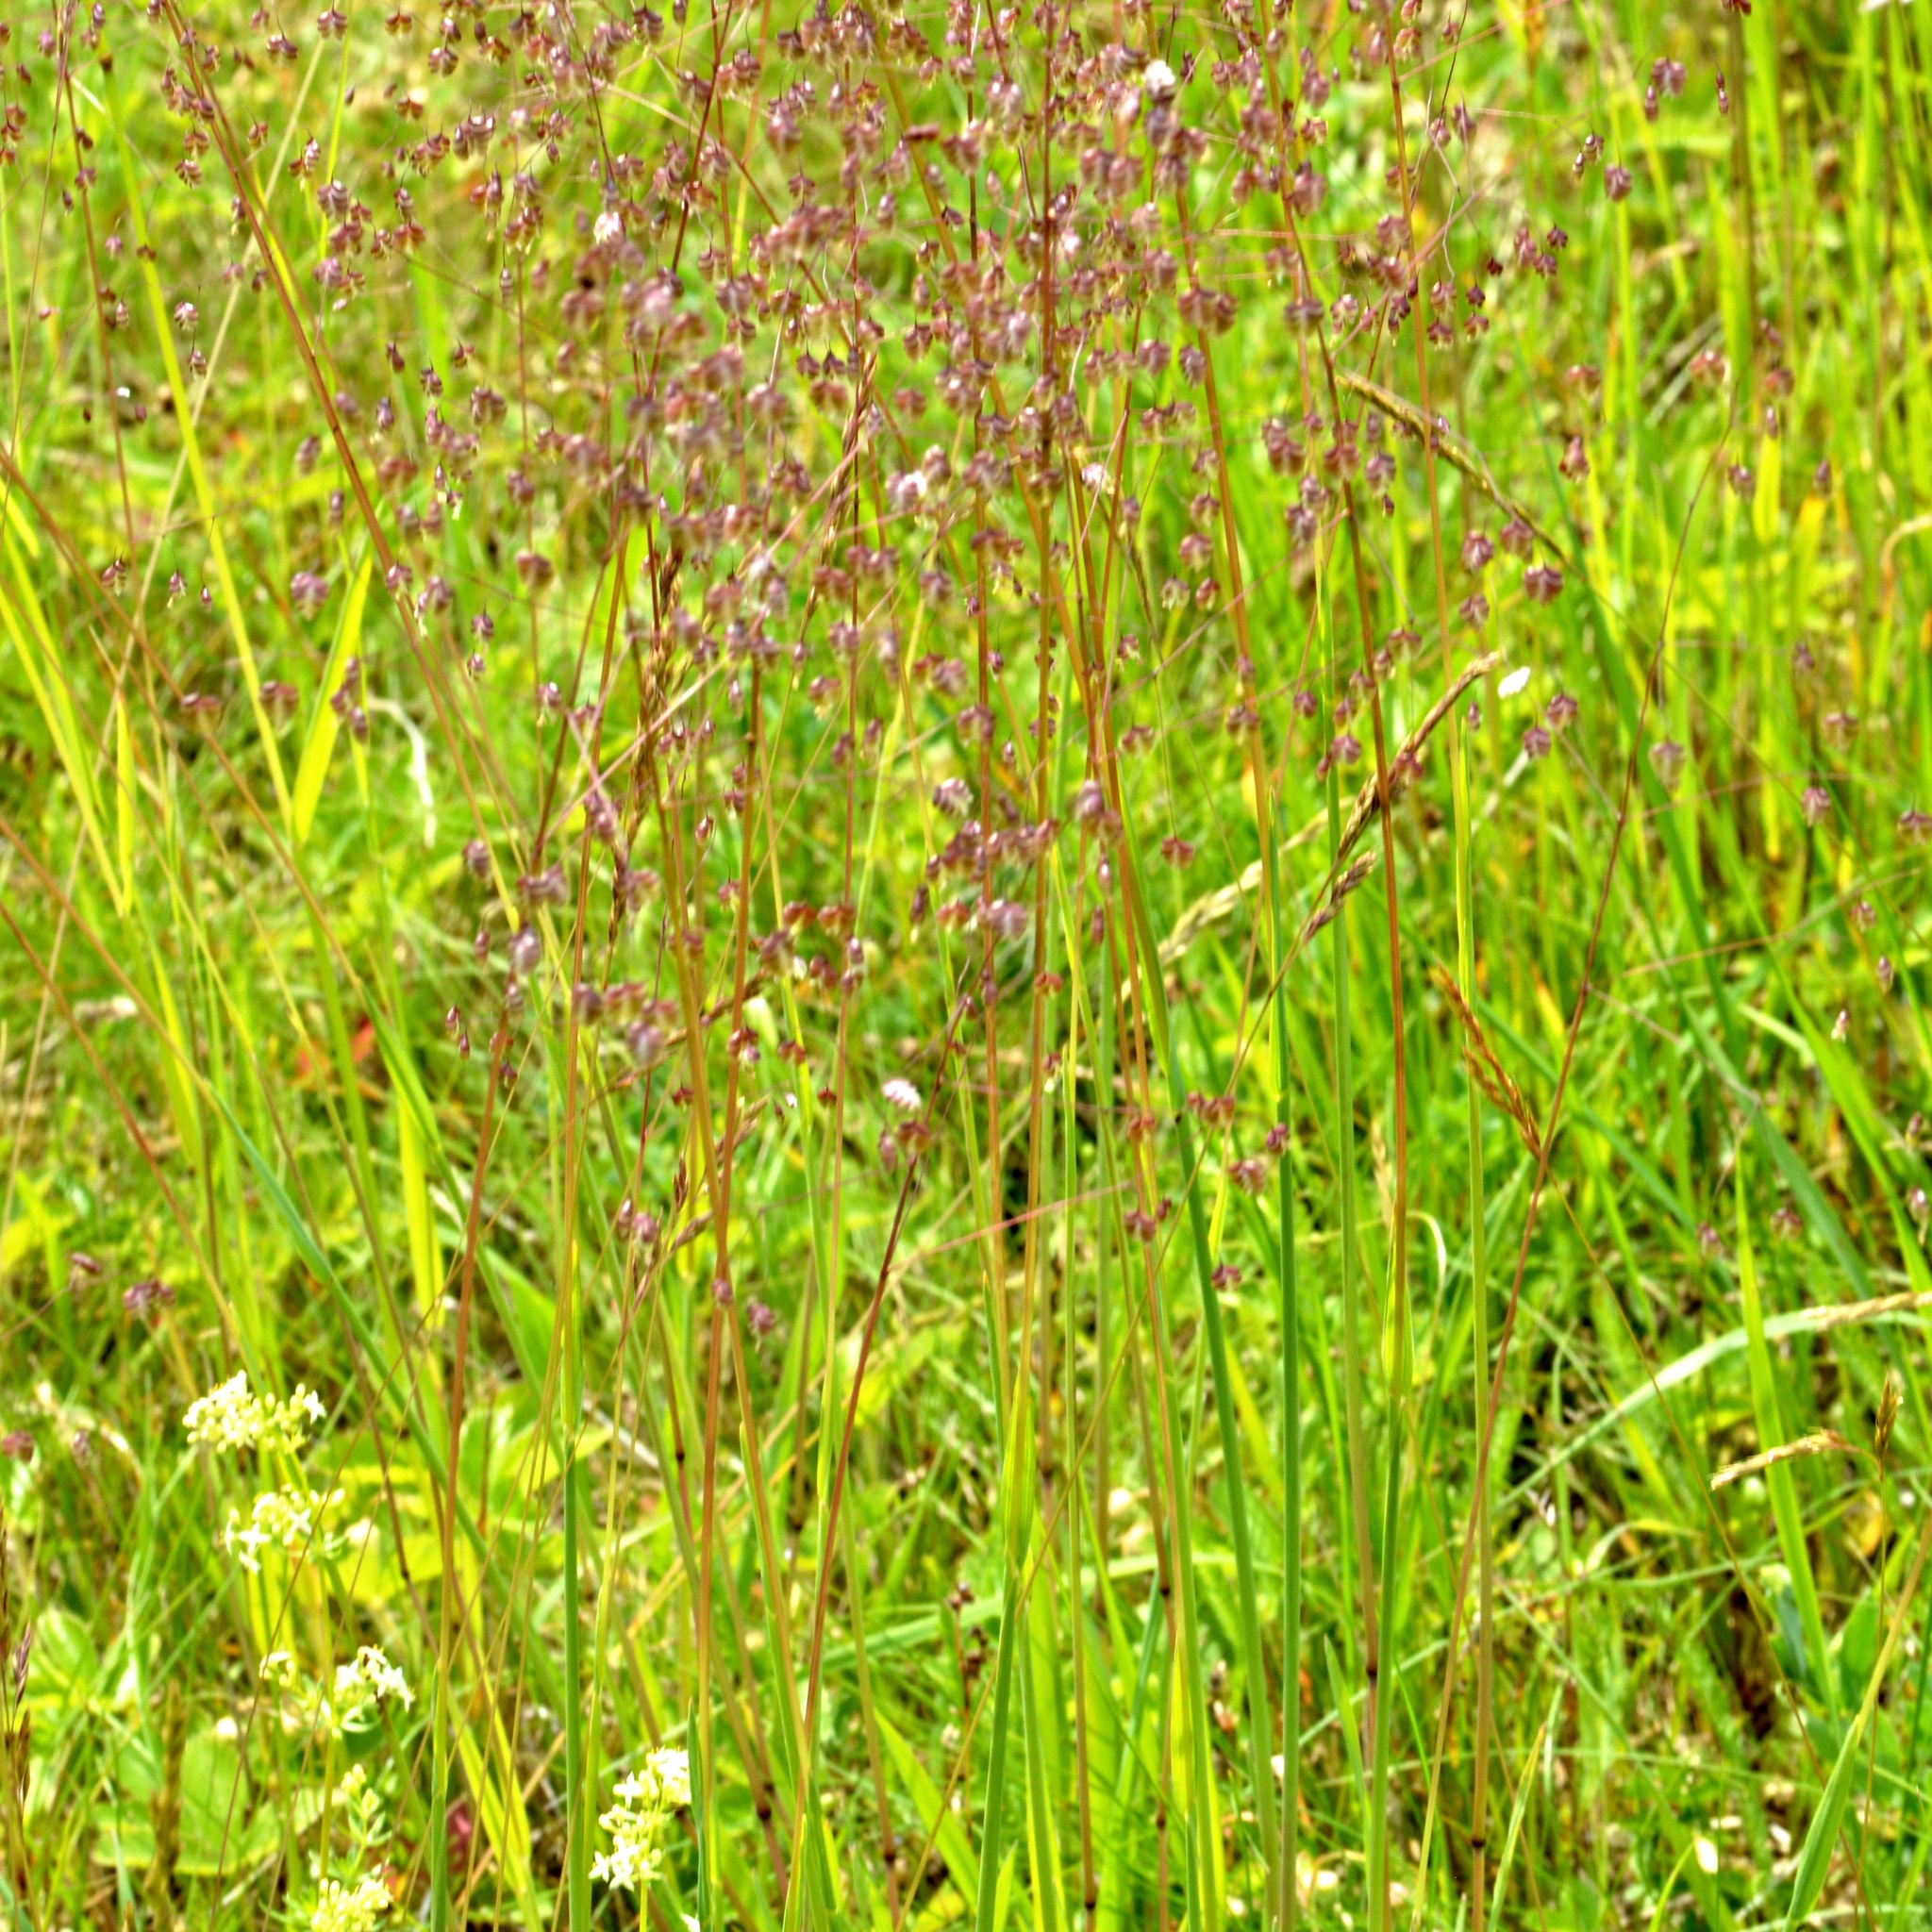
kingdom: Plantae
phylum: Tracheophyta
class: Liliopsida
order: Poales
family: Poaceae
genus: Briza
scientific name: Briza media
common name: Quaking grass
